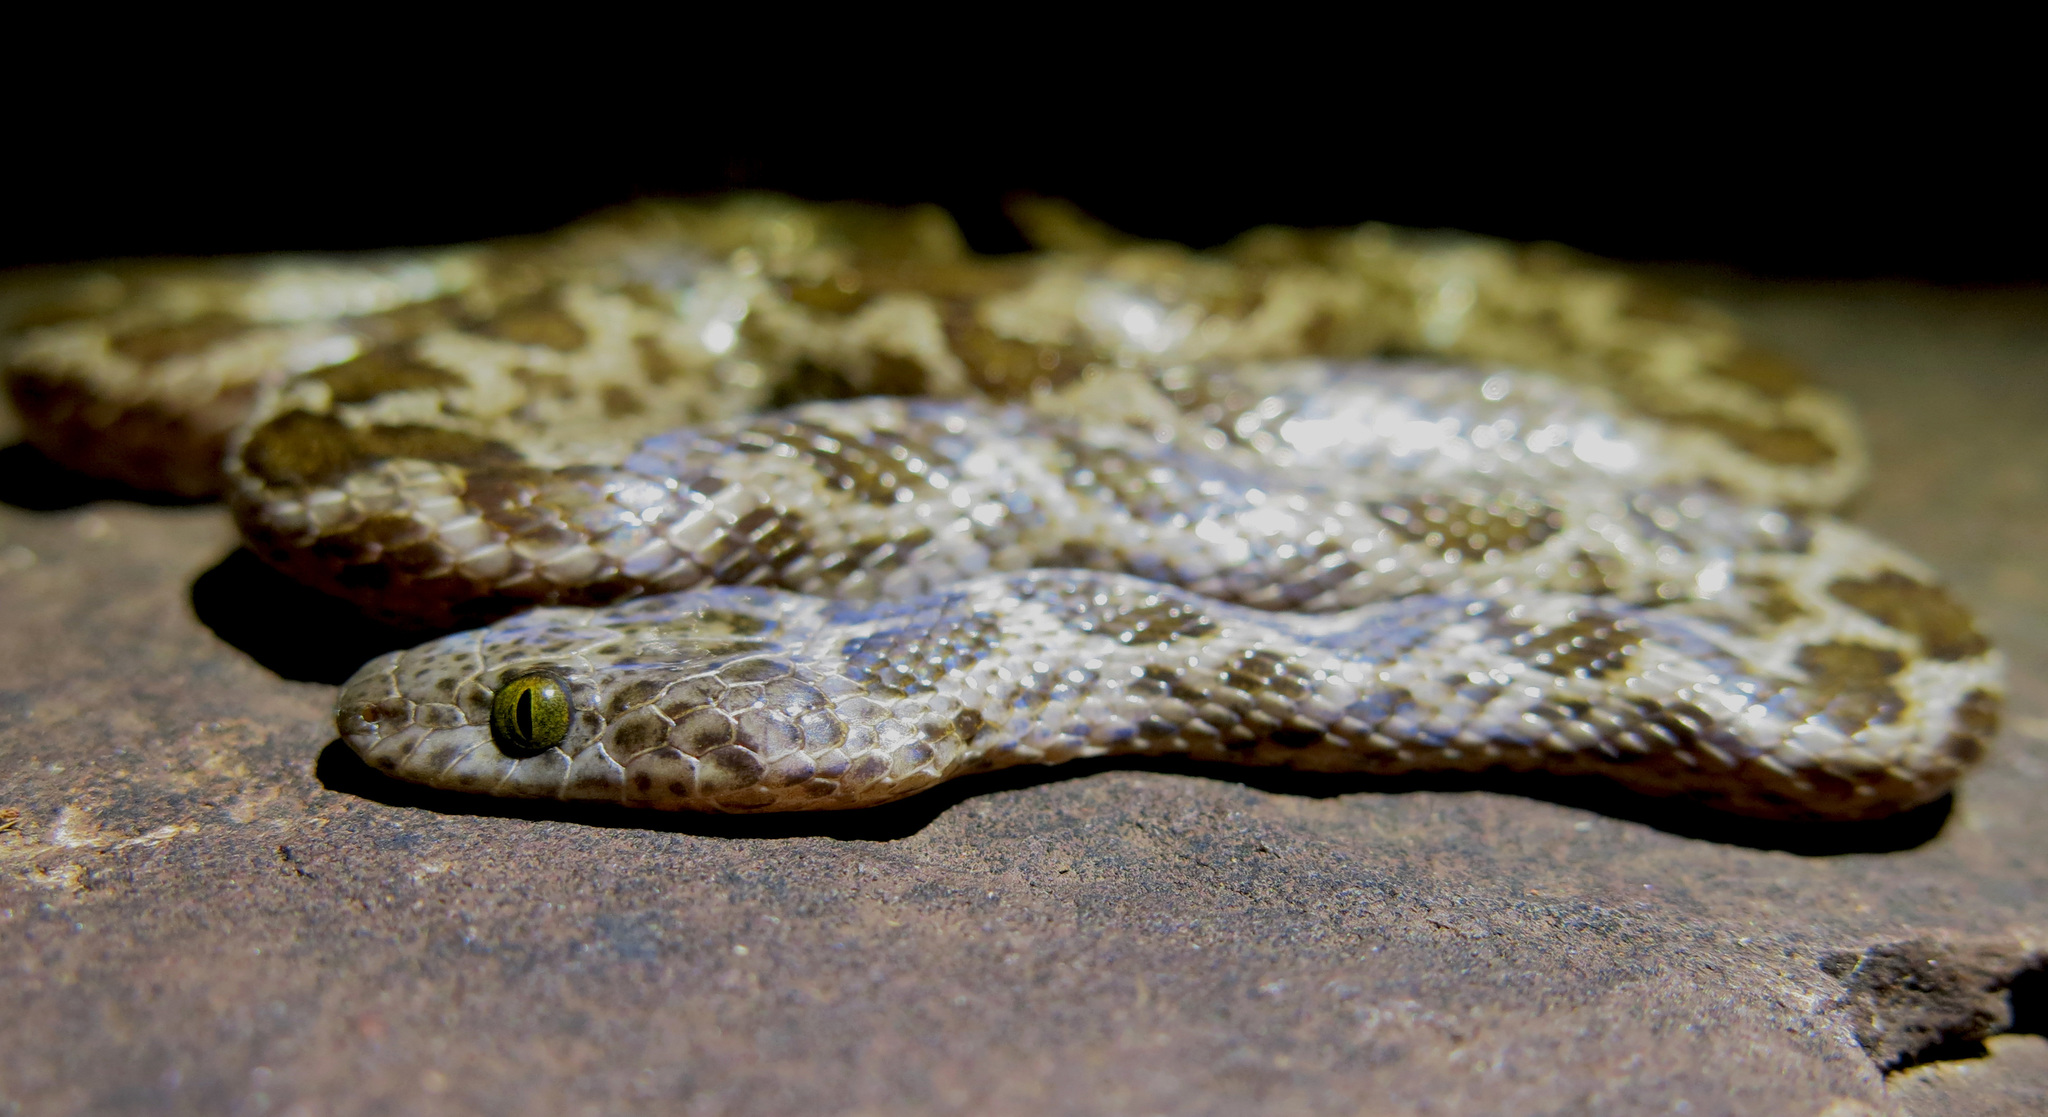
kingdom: Animalia
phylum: Chordata
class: Squamata
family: Lamprophiidae
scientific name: Lamprophiidae
